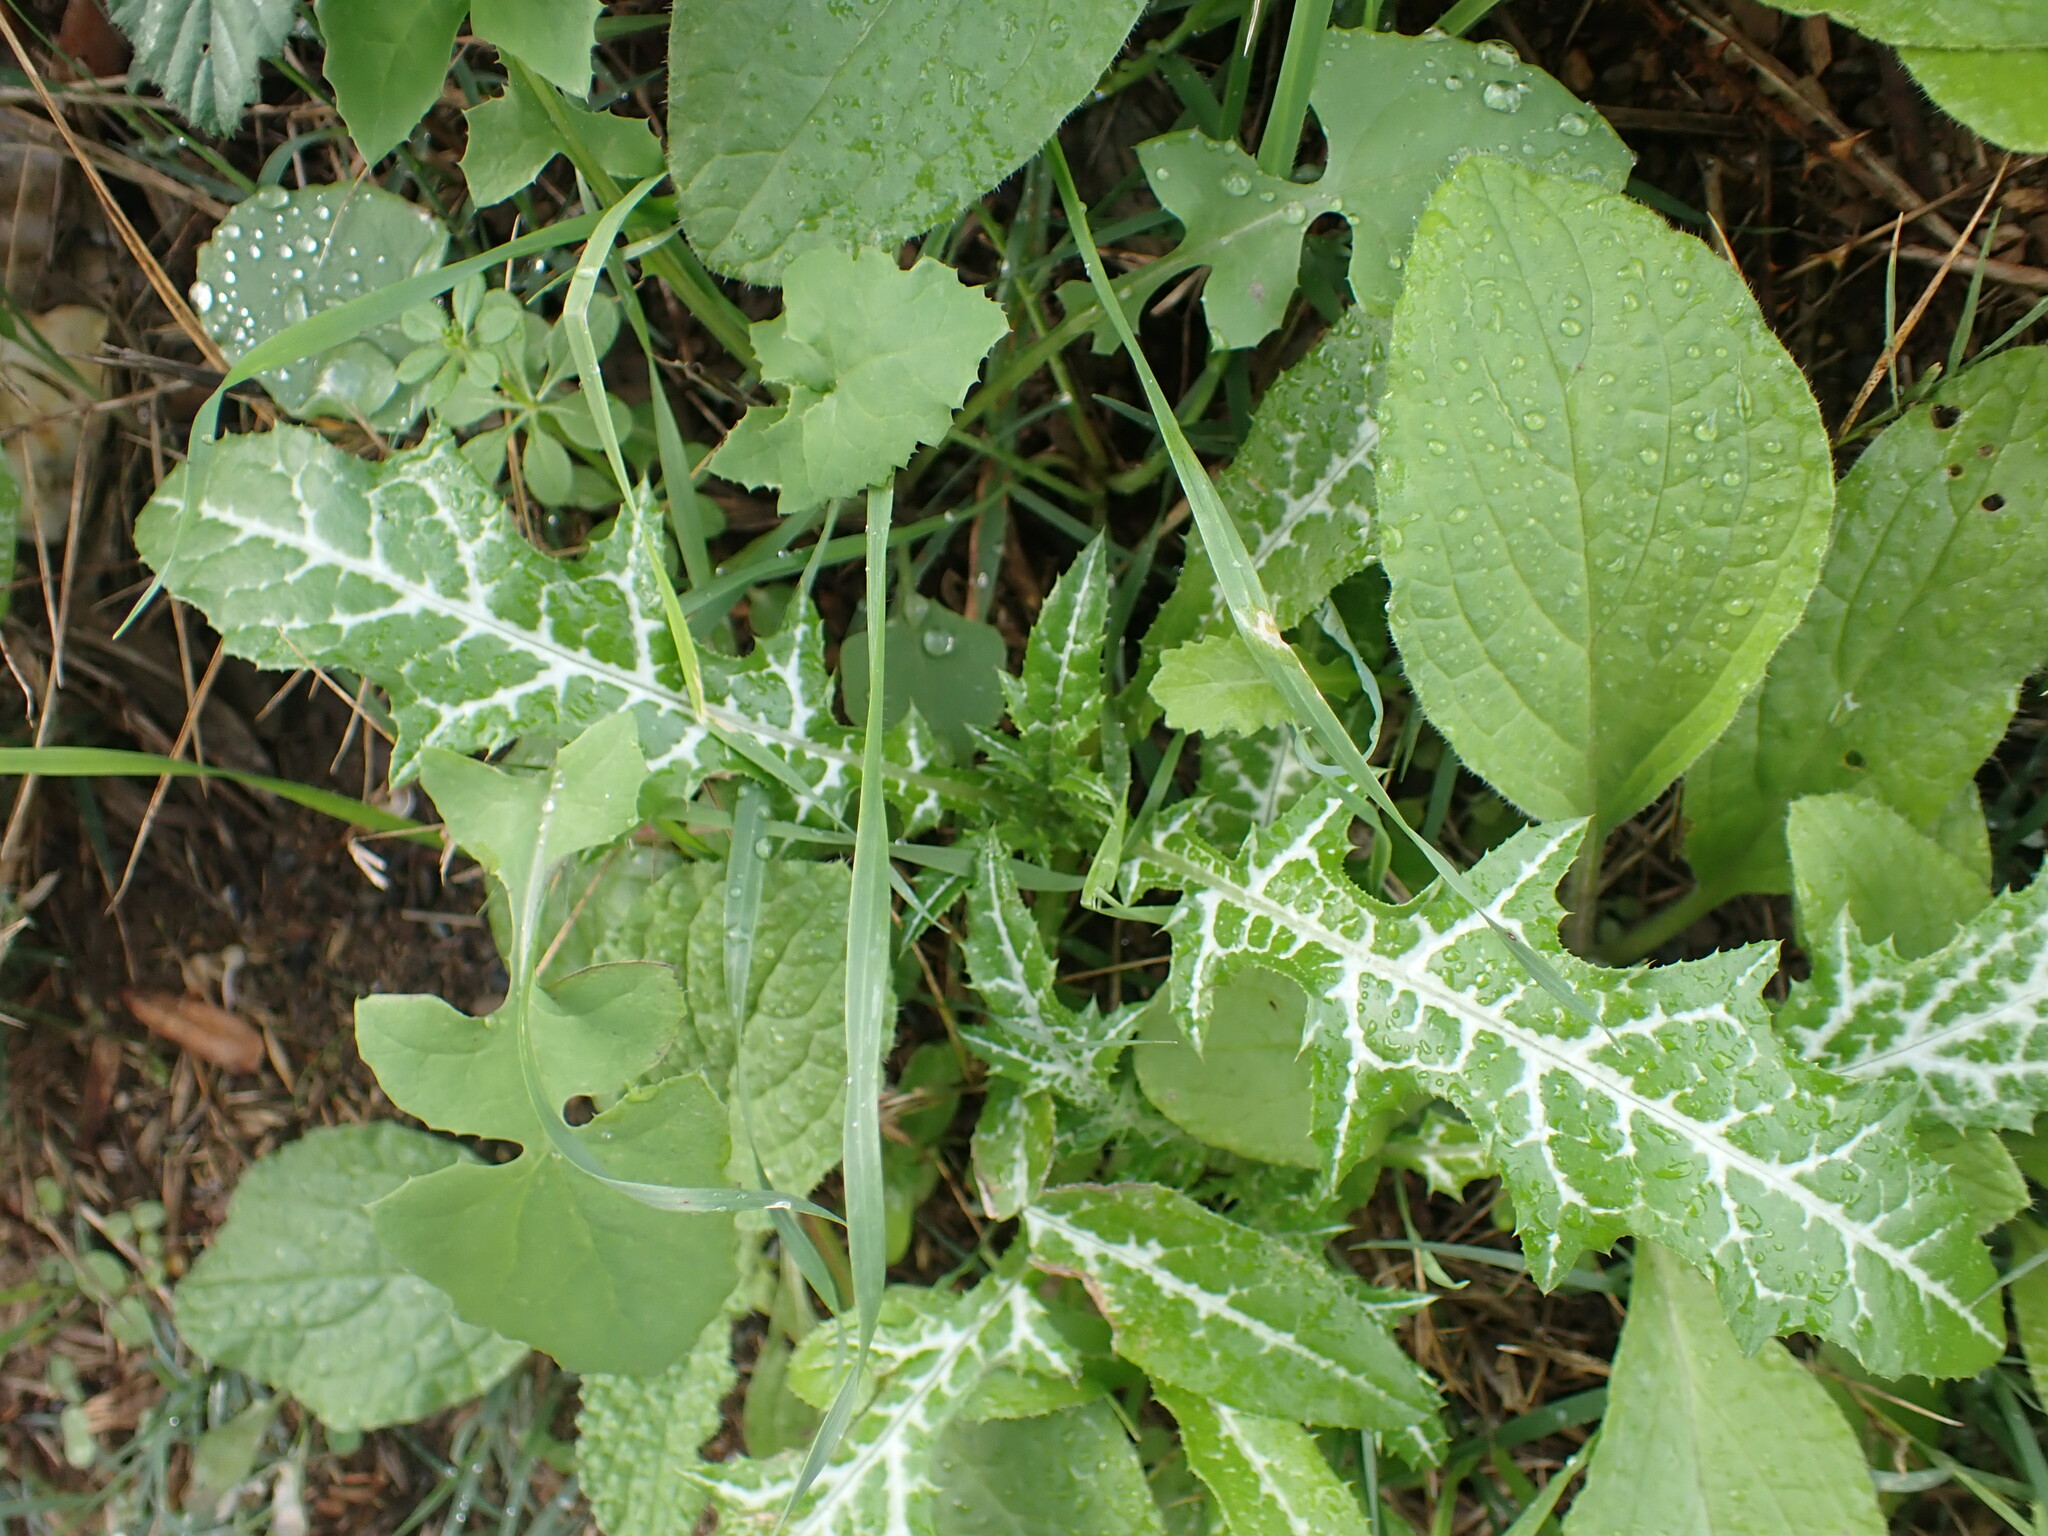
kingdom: Plantae
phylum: Tracheophyta
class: Magnoliopsida
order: Asterales
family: Asteraceae
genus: Galactites
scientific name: Galactites tomentosa
